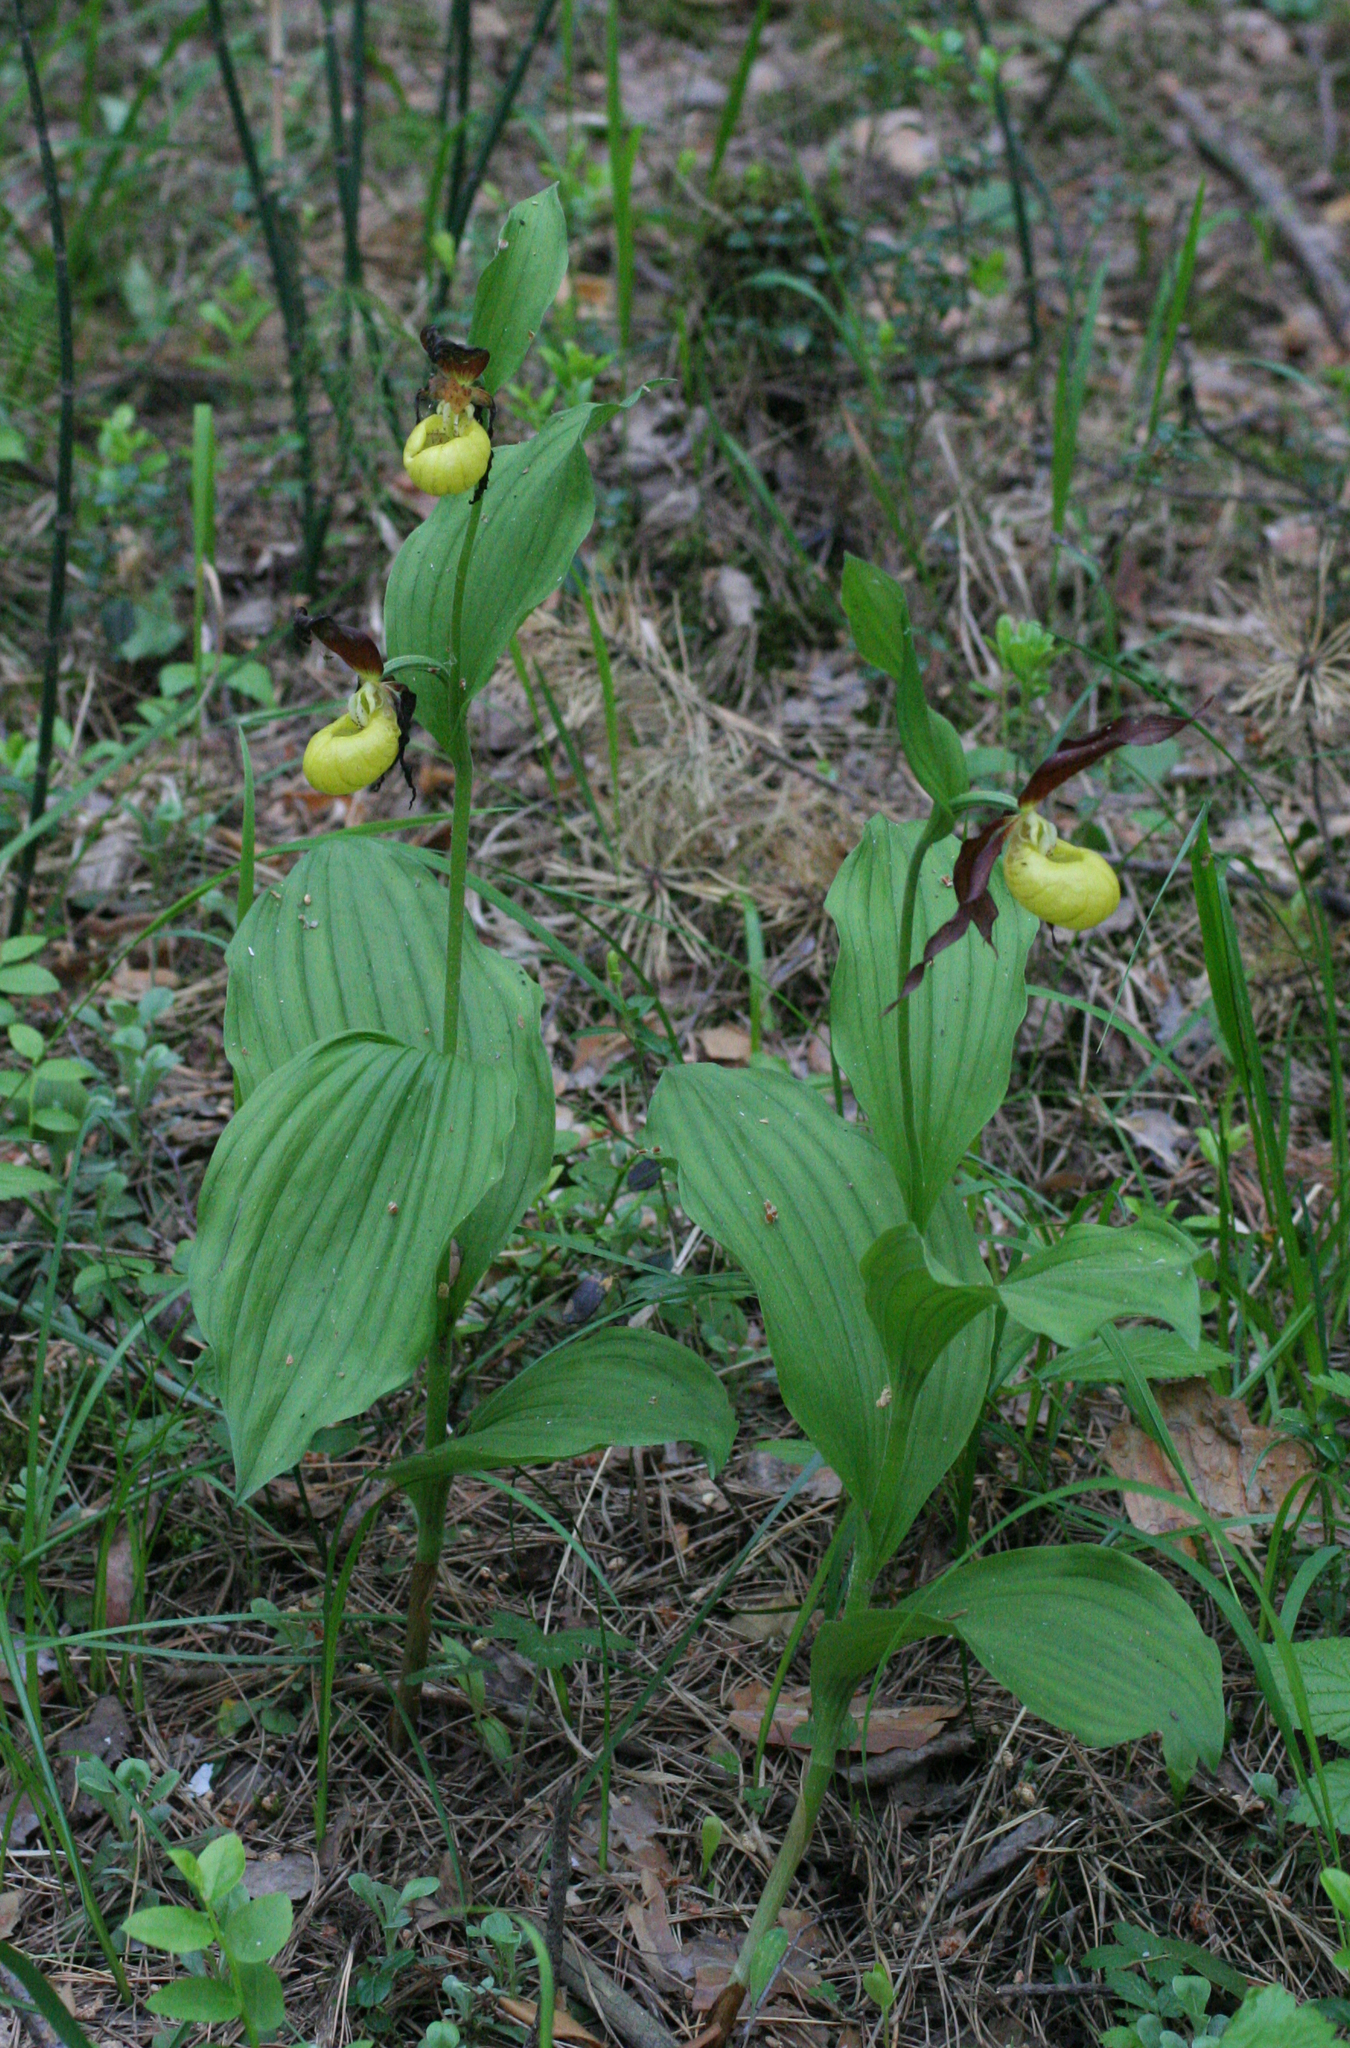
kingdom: Plantae
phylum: Tracheophyta
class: Liliopsida
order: Asparagales
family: Orchidaceae
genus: Cypripedium
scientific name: Cypripedium calceolus
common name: Lady's-slipper
